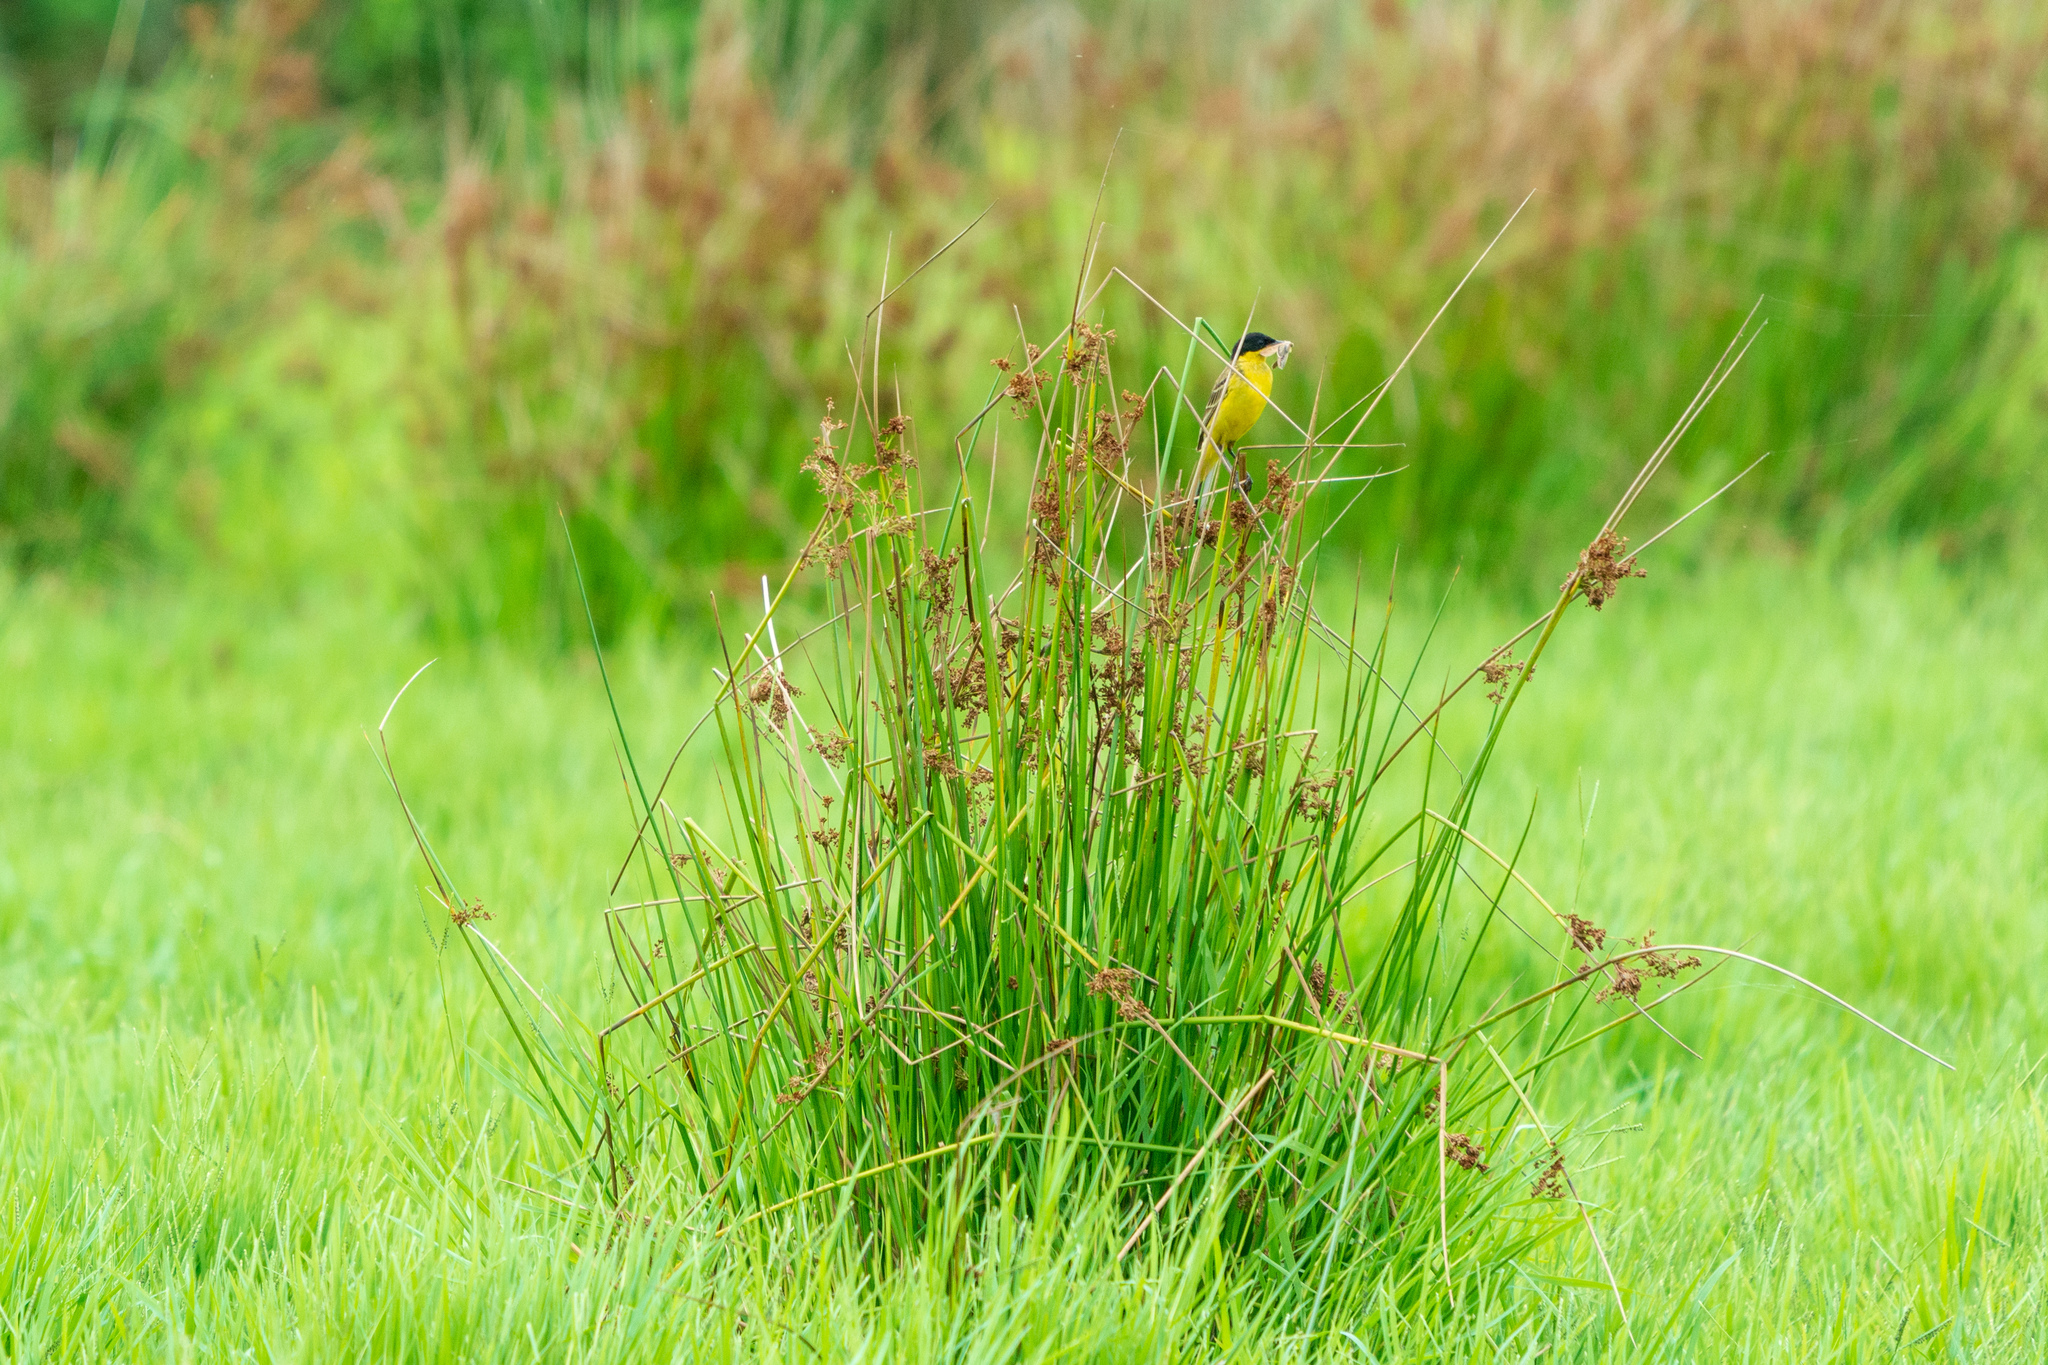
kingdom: Animalia
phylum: Chordata
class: Aves
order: Passeriformes
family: Motacillidae
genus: Motacilla
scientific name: Motacilla flava
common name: Western yellow wagtail
